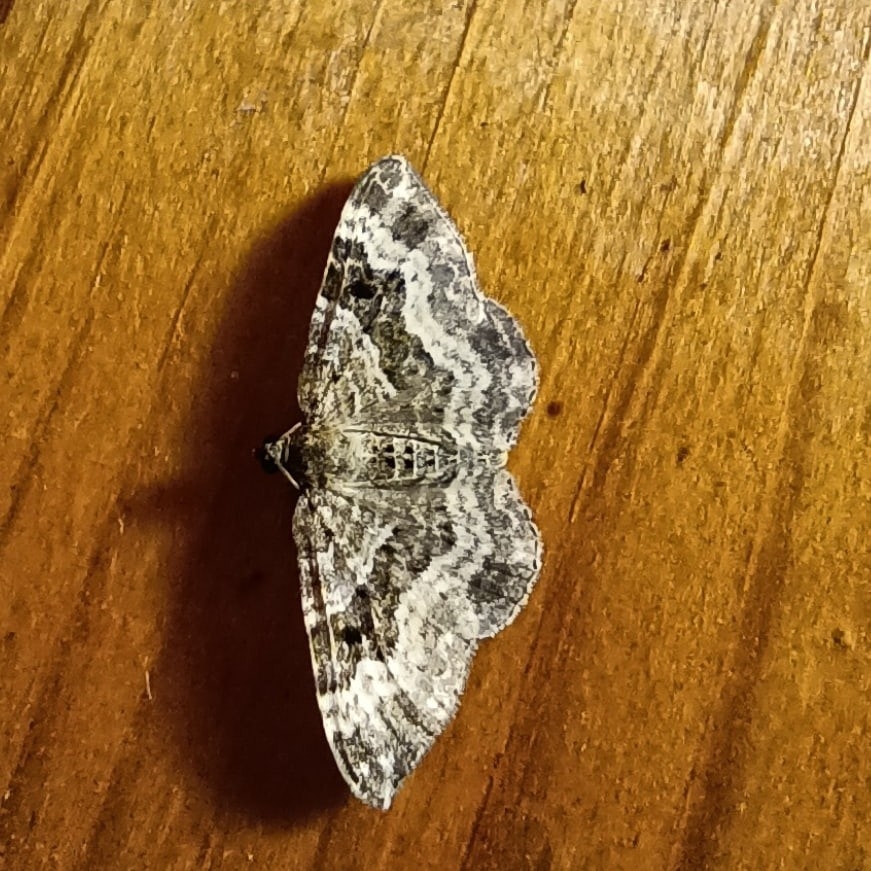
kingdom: Animalia
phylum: Arthropoda
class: Insecta
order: Lepidoptera
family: Geometridae
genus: Epirrhoe
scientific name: Epirrhoe alternata
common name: Common carpet
